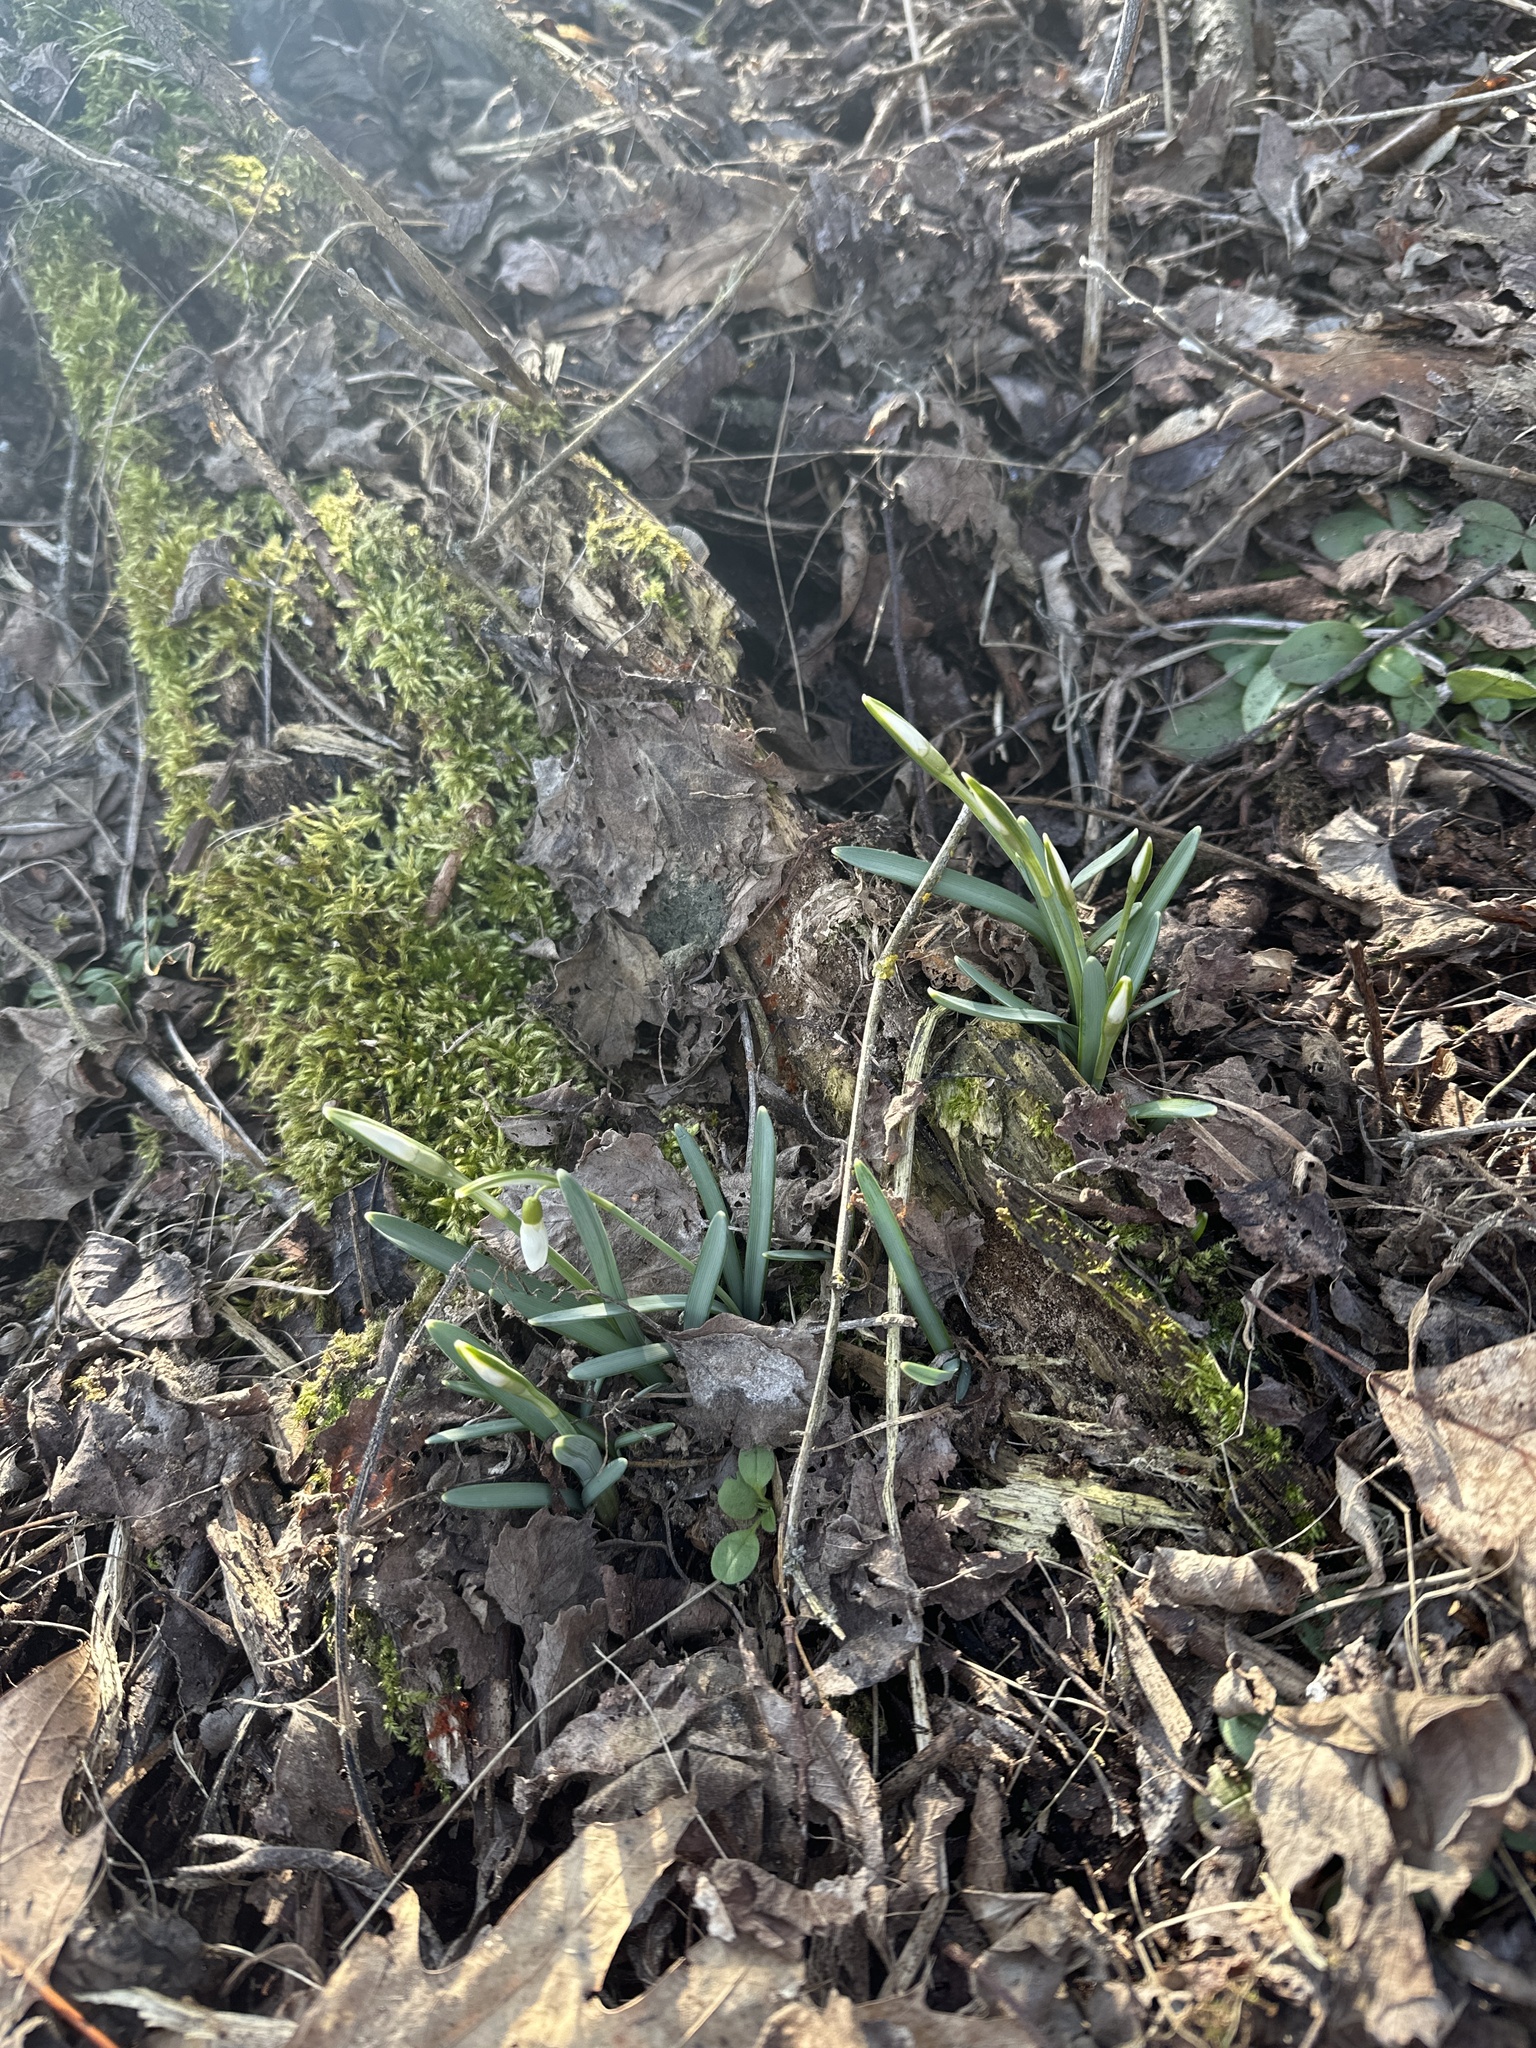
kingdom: Plantae
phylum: Tracheophyta
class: Liliopsida
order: Asparagales
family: Amaryllidaceae
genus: Galanthus
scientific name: Galanthus nivalis
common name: Snowdrop
